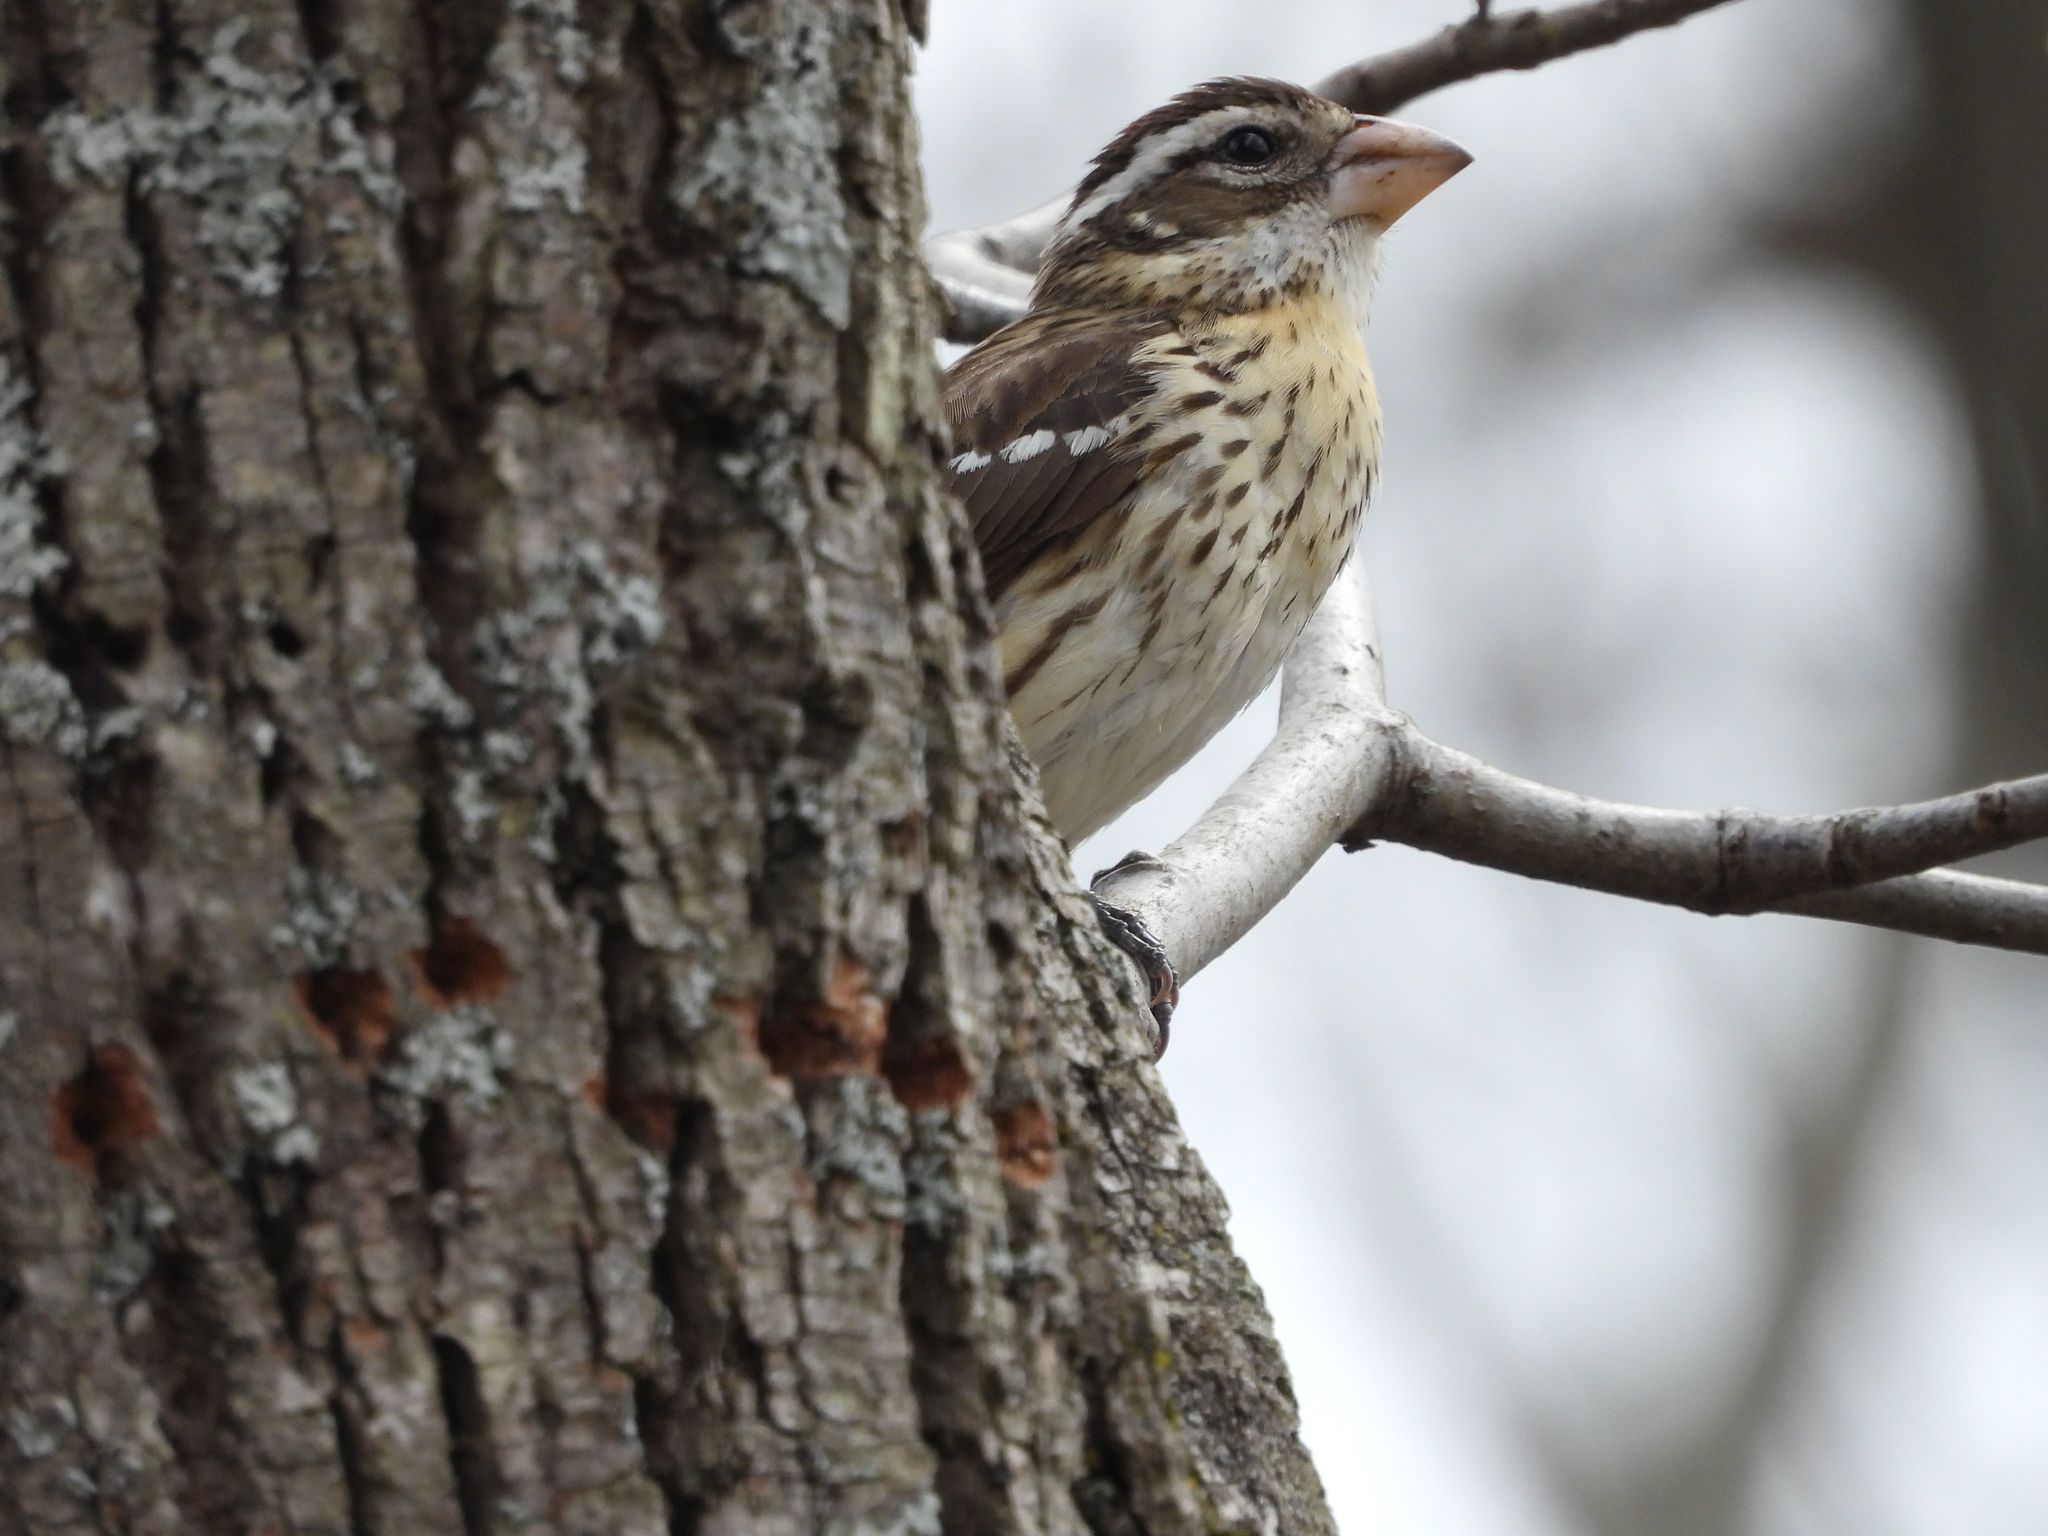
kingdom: Animalia
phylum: Chordata
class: Aves
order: Passeriformes
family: Cardinalidae
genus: Pheucticus
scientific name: Pheucticus ludovicianus
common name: Rose-breasted grosbeak
